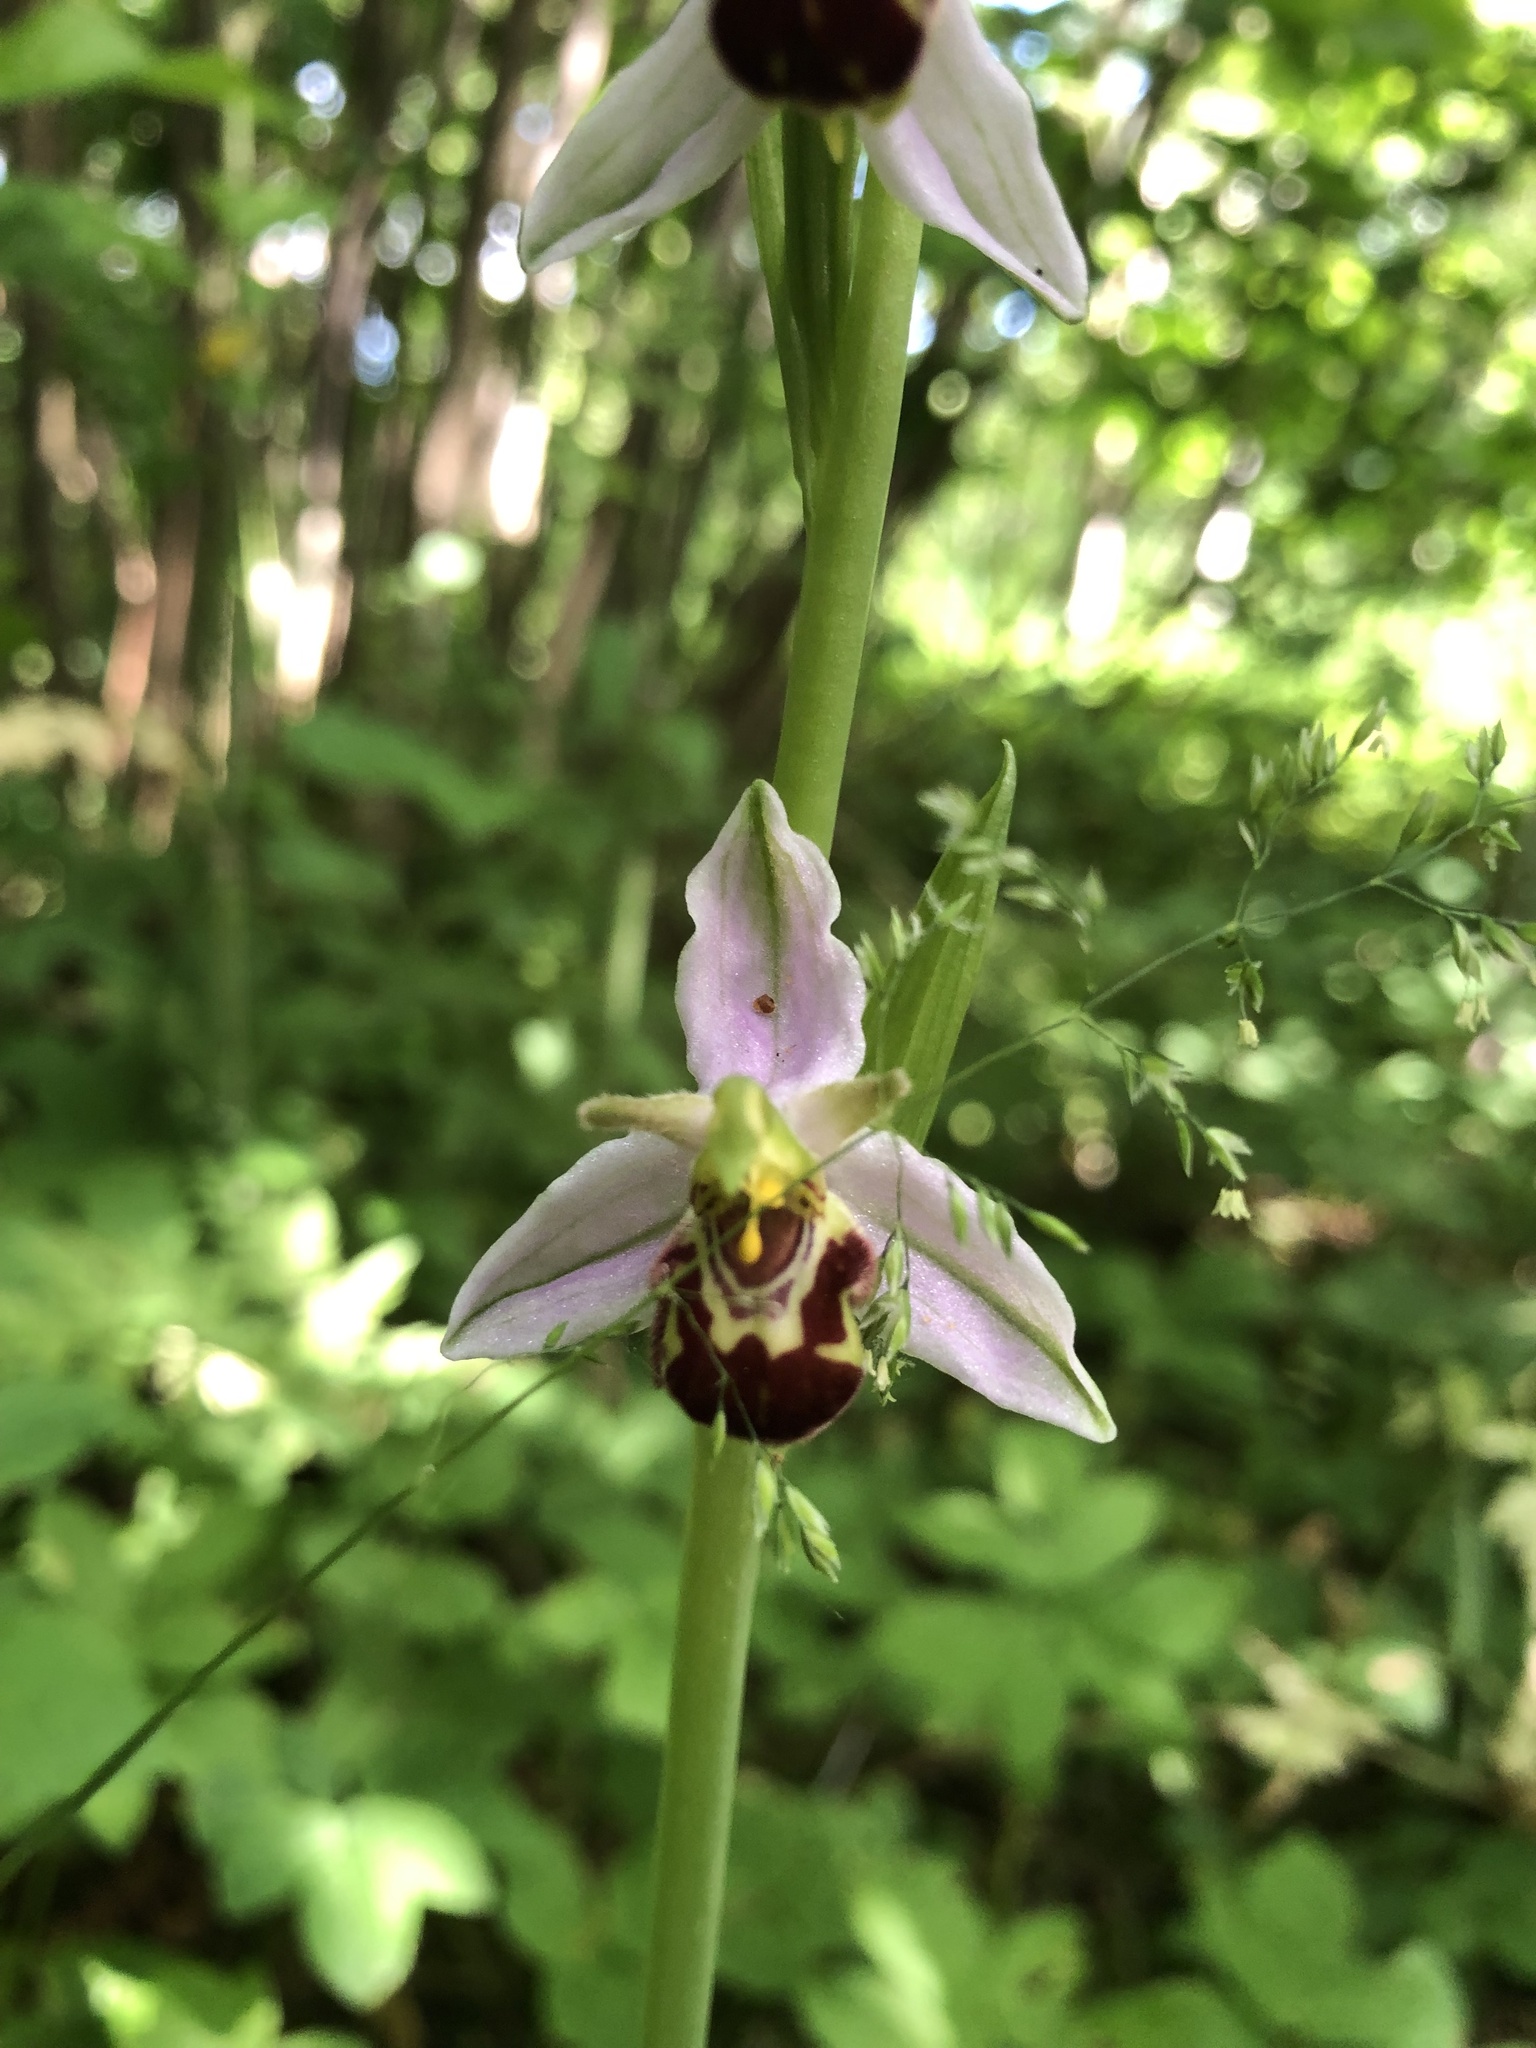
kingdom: Plantae
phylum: Tracheophyta
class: Liliopsida
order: Asparagales
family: Orchidaceae
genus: Ophrys
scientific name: Ophrys apifera
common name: Bee orchid
